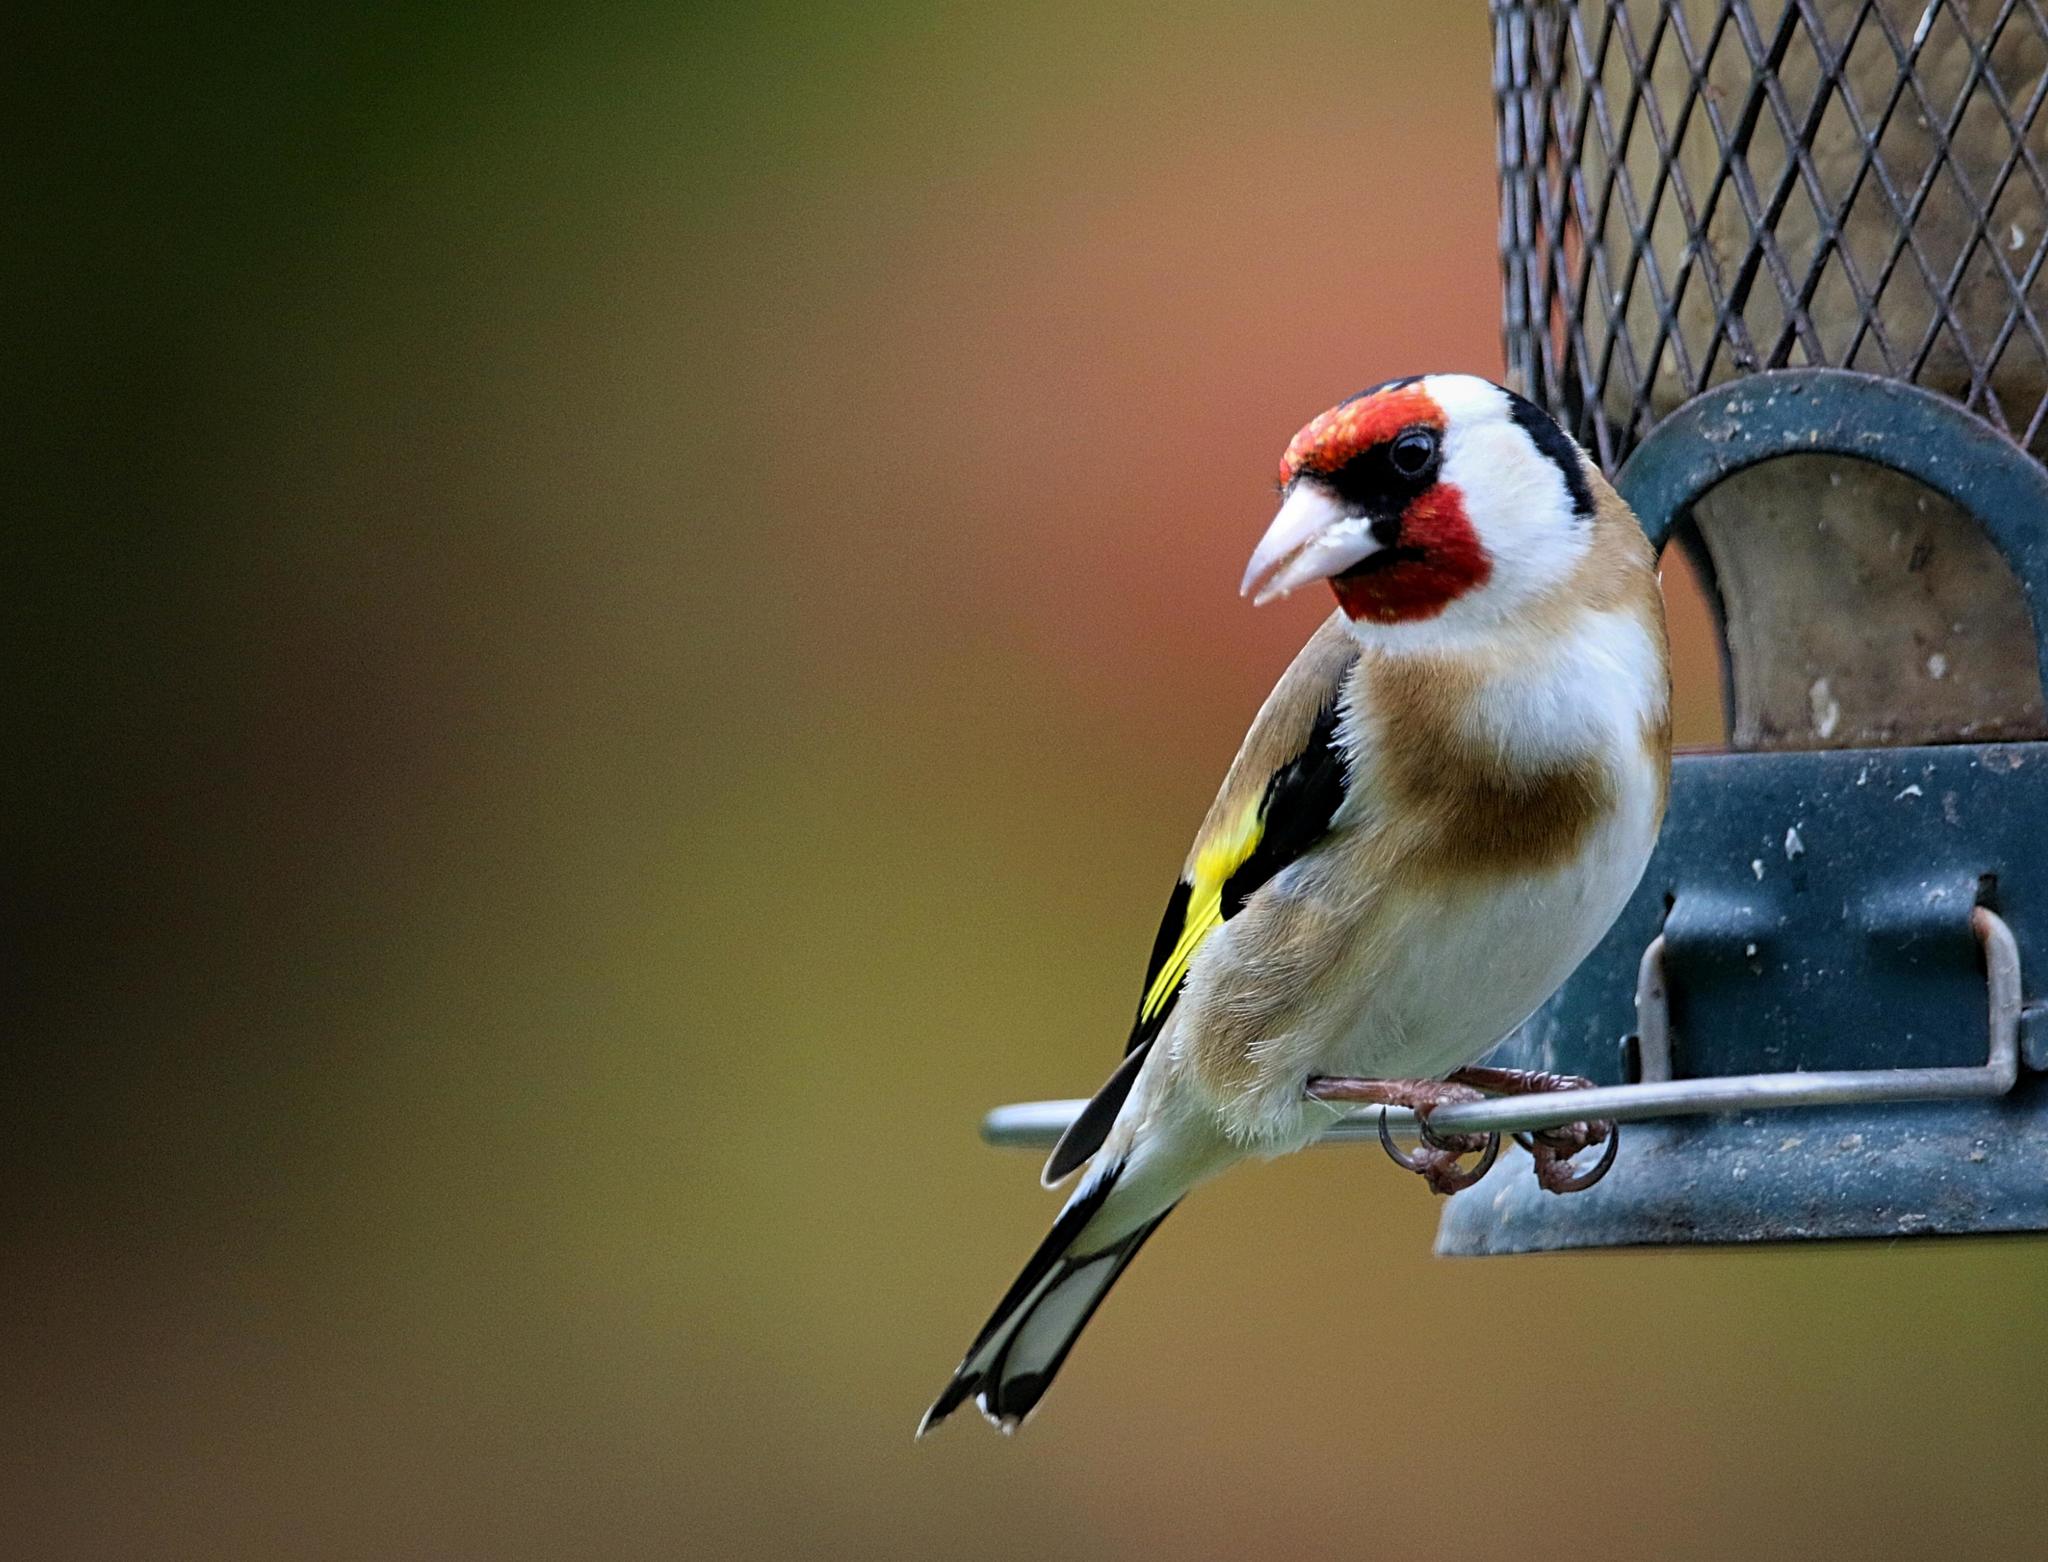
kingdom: Animalia
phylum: Chordata
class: Aves
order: Passeriformes
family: Fringillidae
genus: Carduelis
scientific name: Carduelis carduelis
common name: European goldfinch
